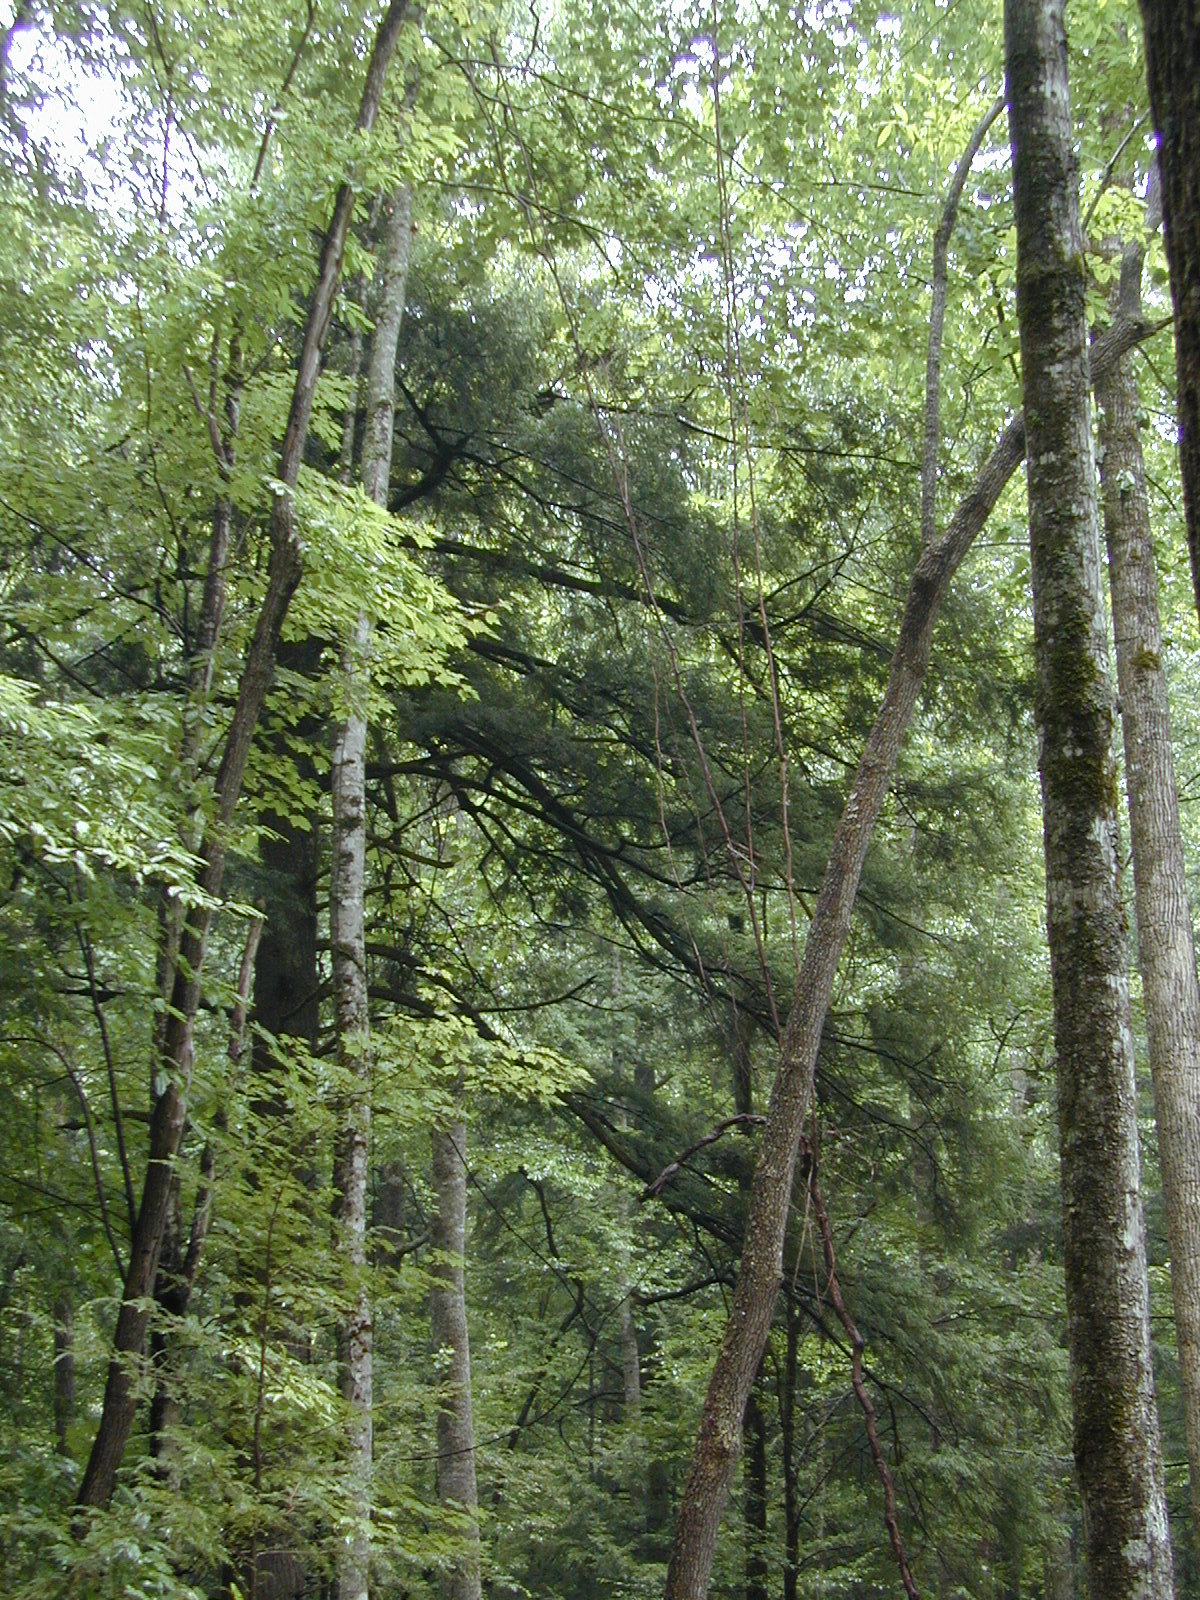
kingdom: Plantae
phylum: Tracheophyta
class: Pinopsida
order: Pinales
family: Pinaceae
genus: Tsuga
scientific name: Tsuga canadensis
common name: Eastern hemlock
